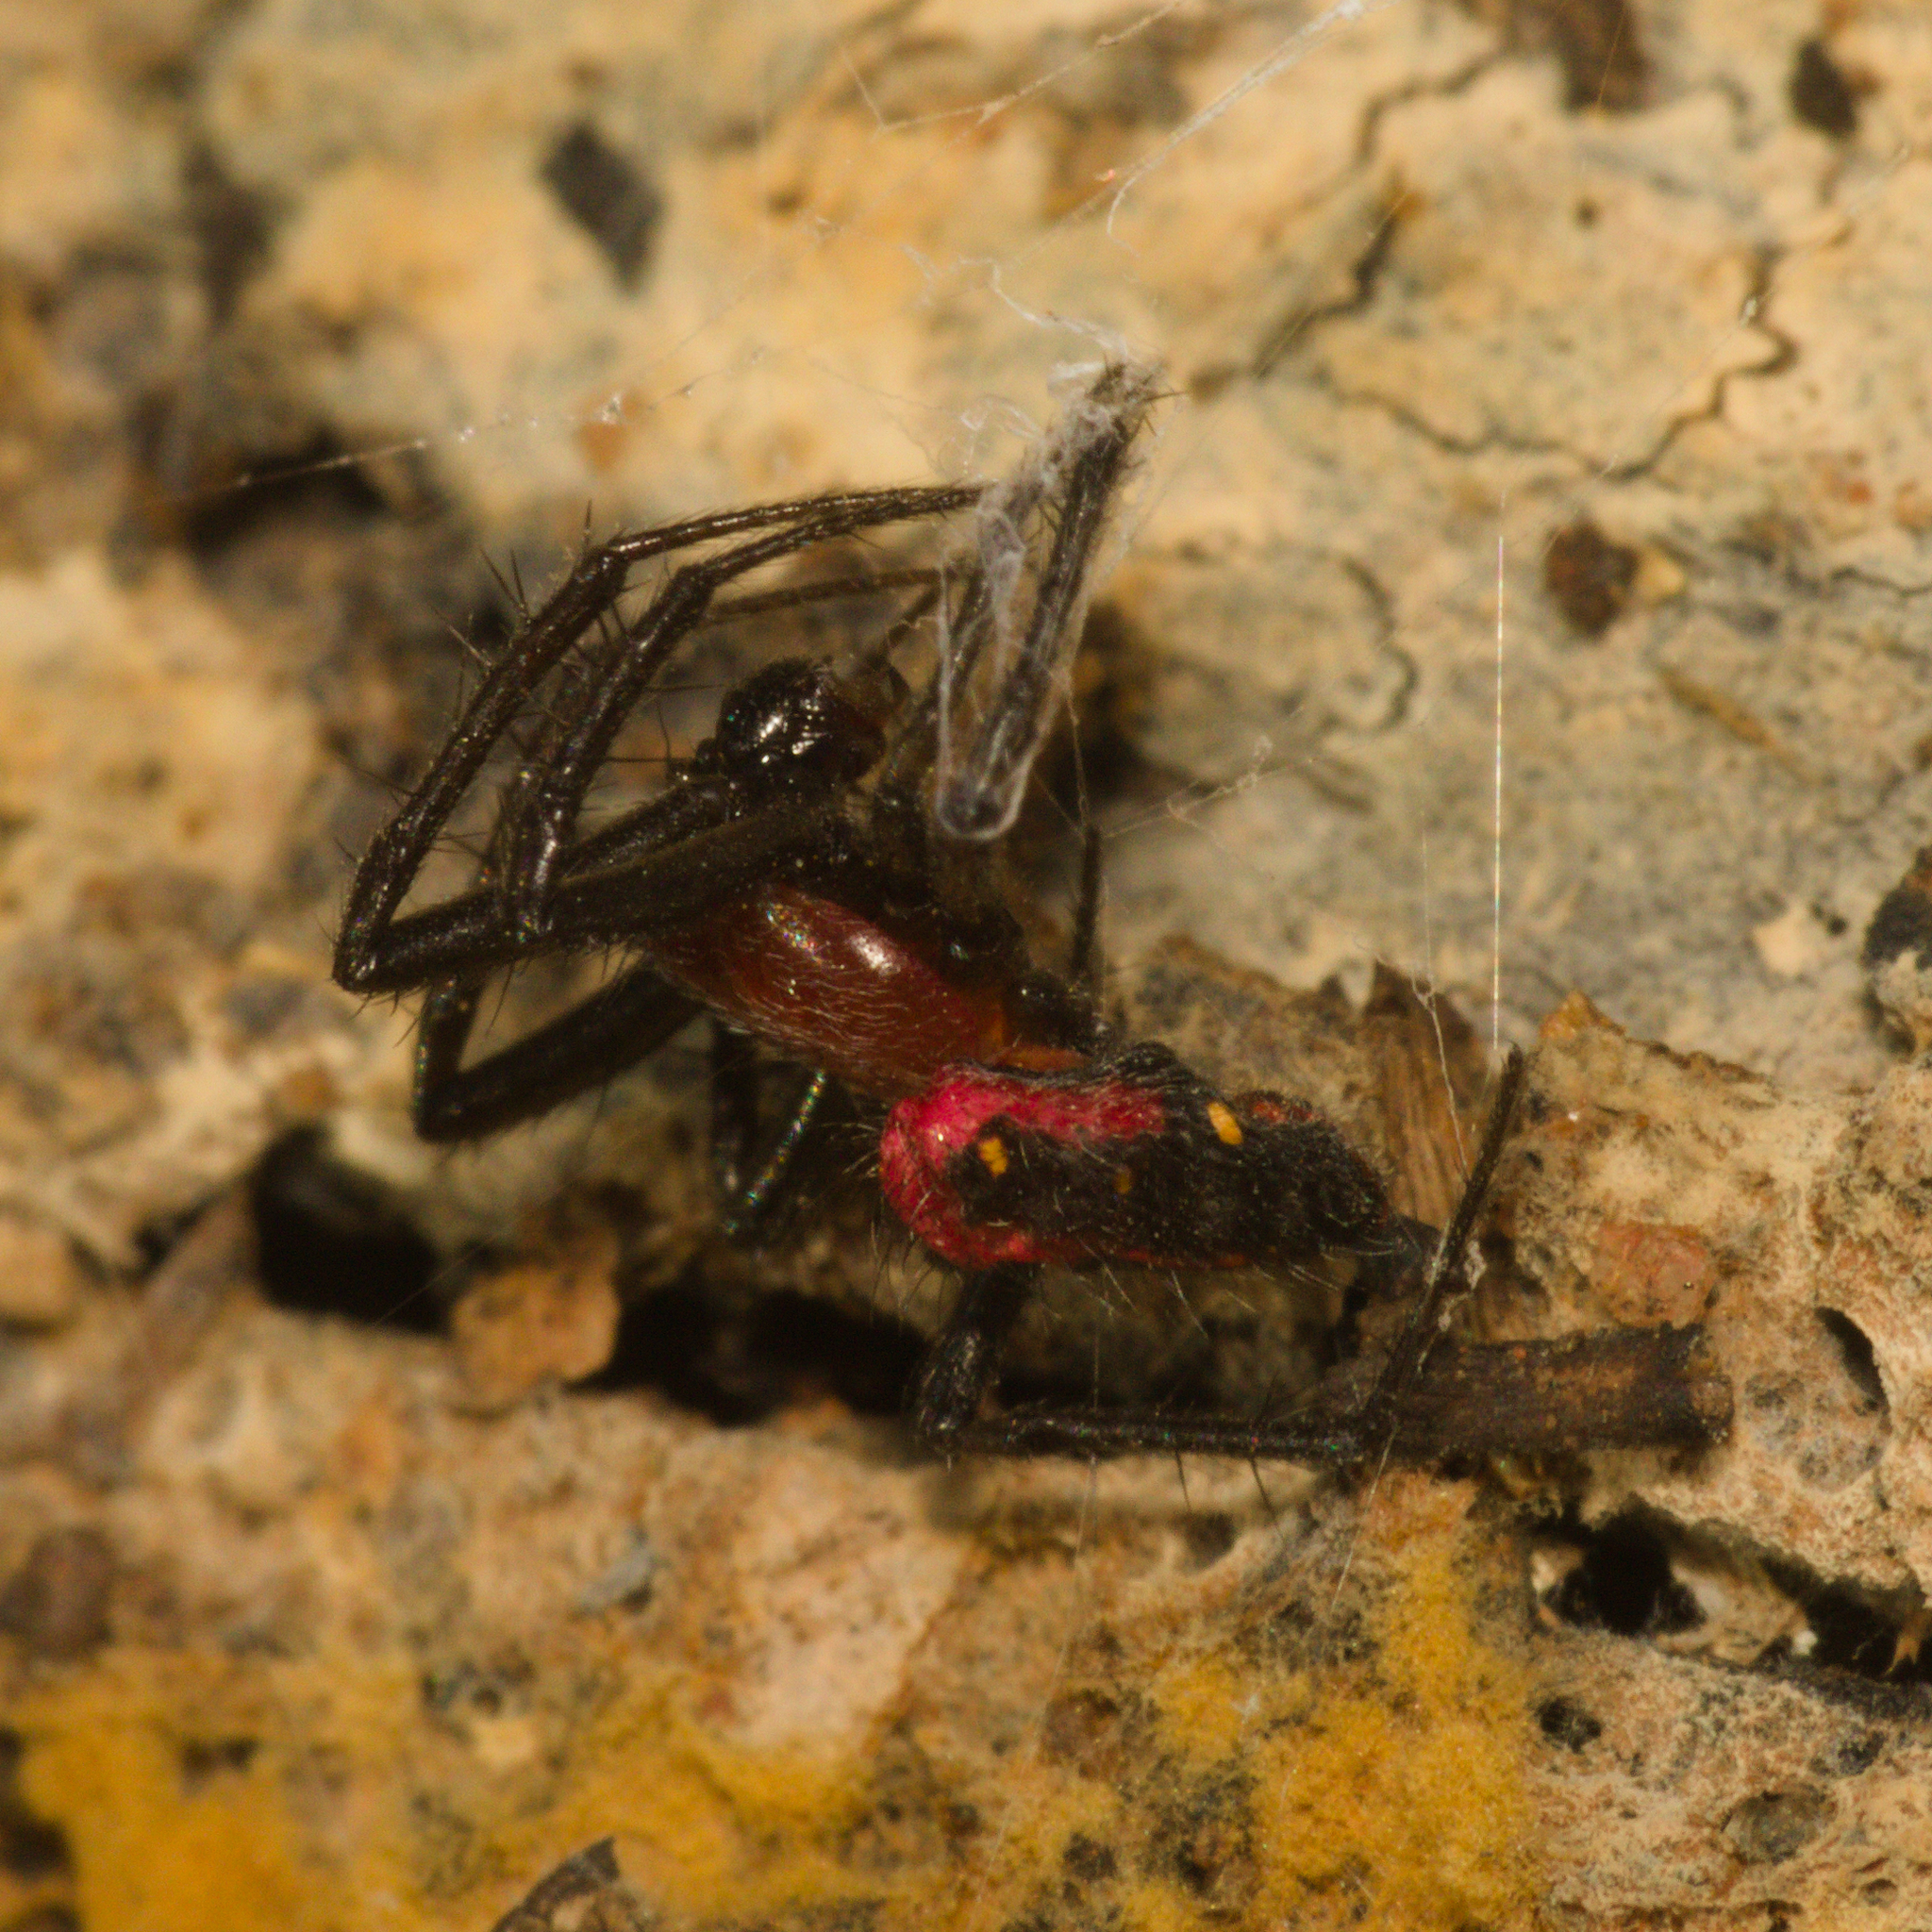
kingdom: Animalia
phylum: Arthropoda
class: Arachnida
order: Araneae
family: Araneidae
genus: Alpaida
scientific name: Alpaida carminea
